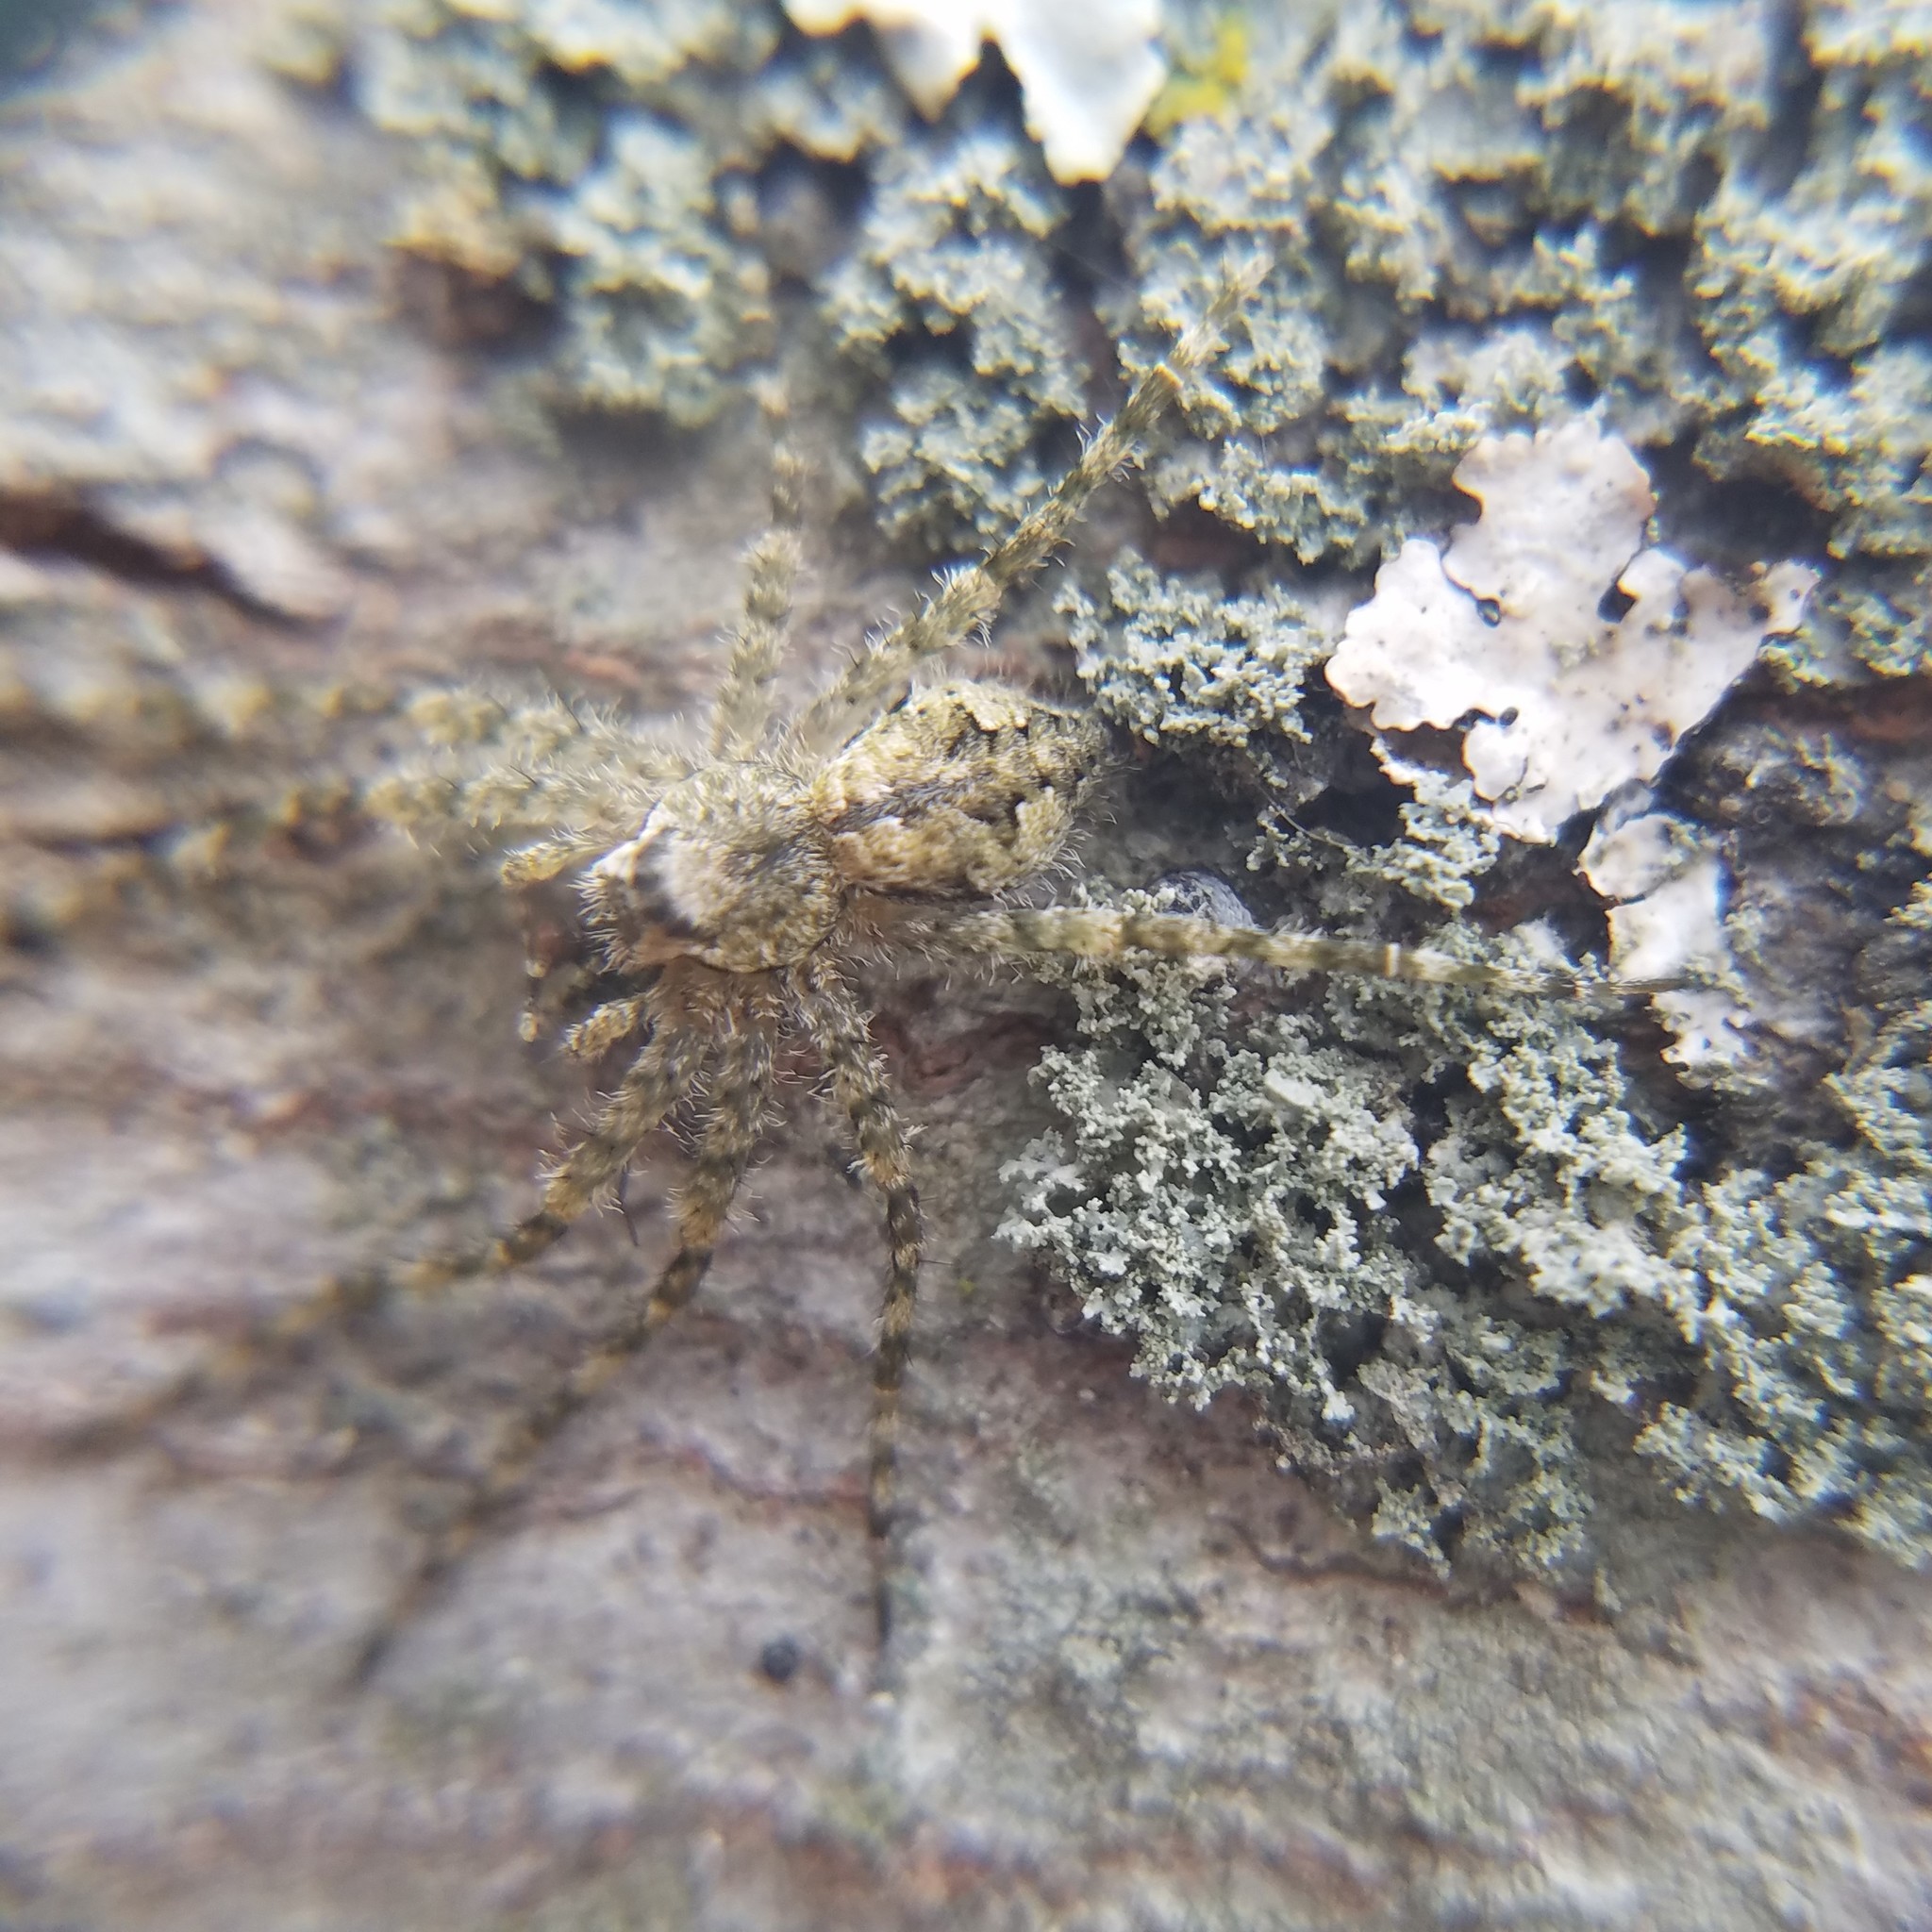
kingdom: Animalia
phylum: Arthropoda
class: Arachnida
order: Araneae
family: Pisauridae
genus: Dolomedes
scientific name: Dolomedes albineus
